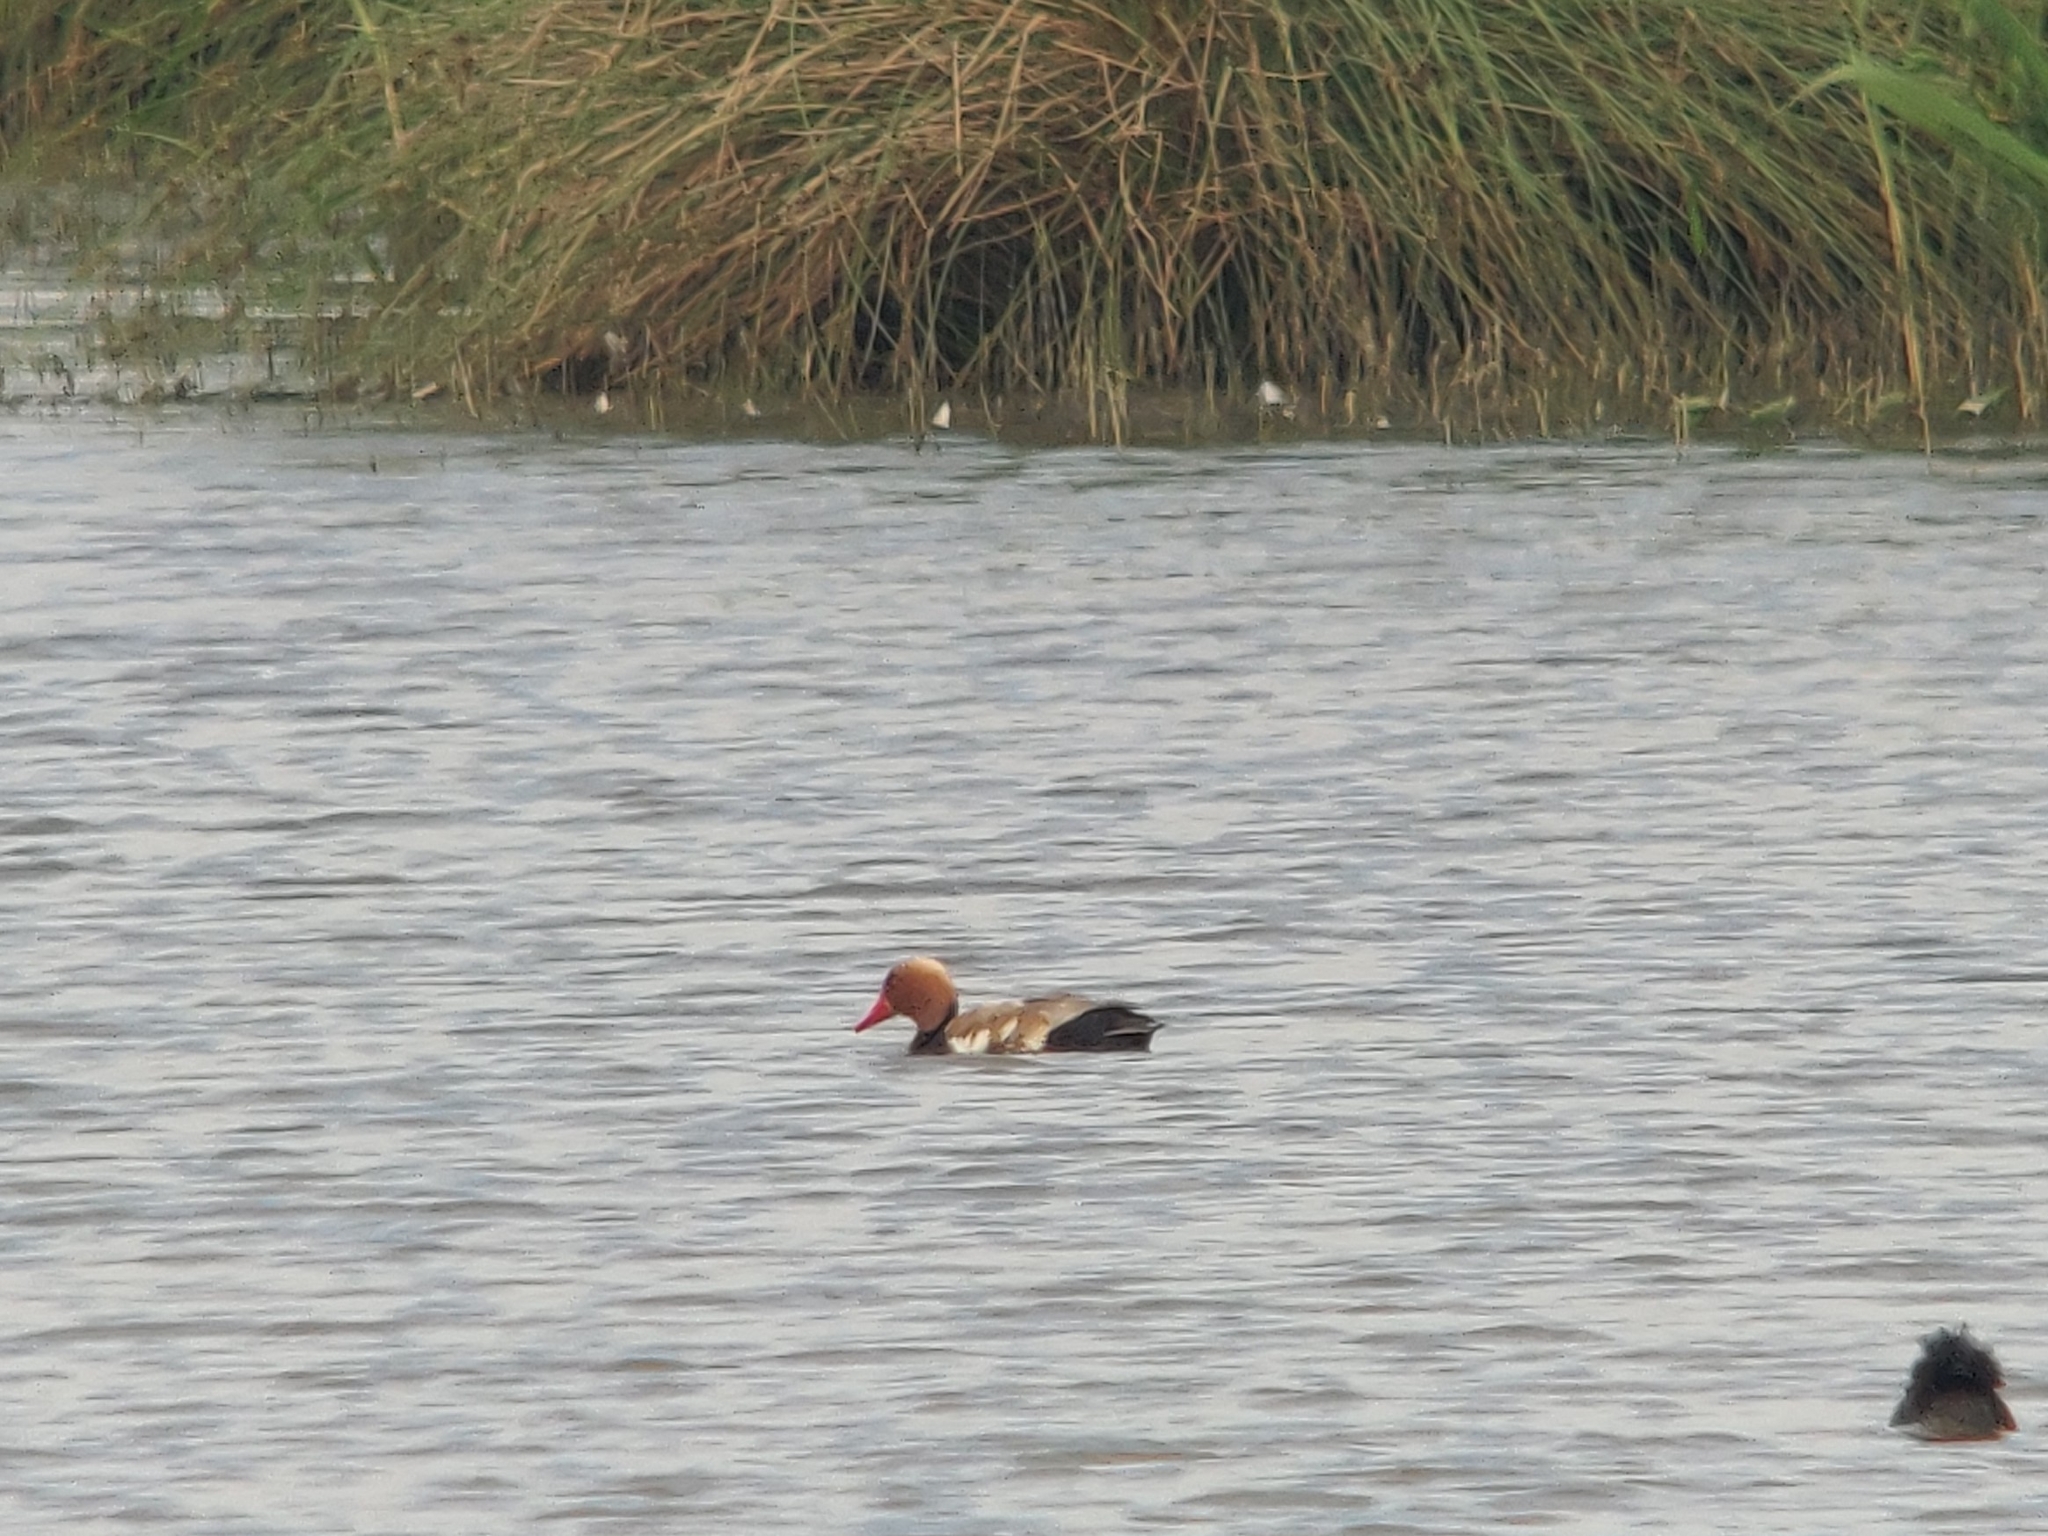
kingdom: Animalia
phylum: Chordata
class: Aves
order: Anseriformes
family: Anatidae
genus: Netta
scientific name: Netta rufina
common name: Red-crested pochard
